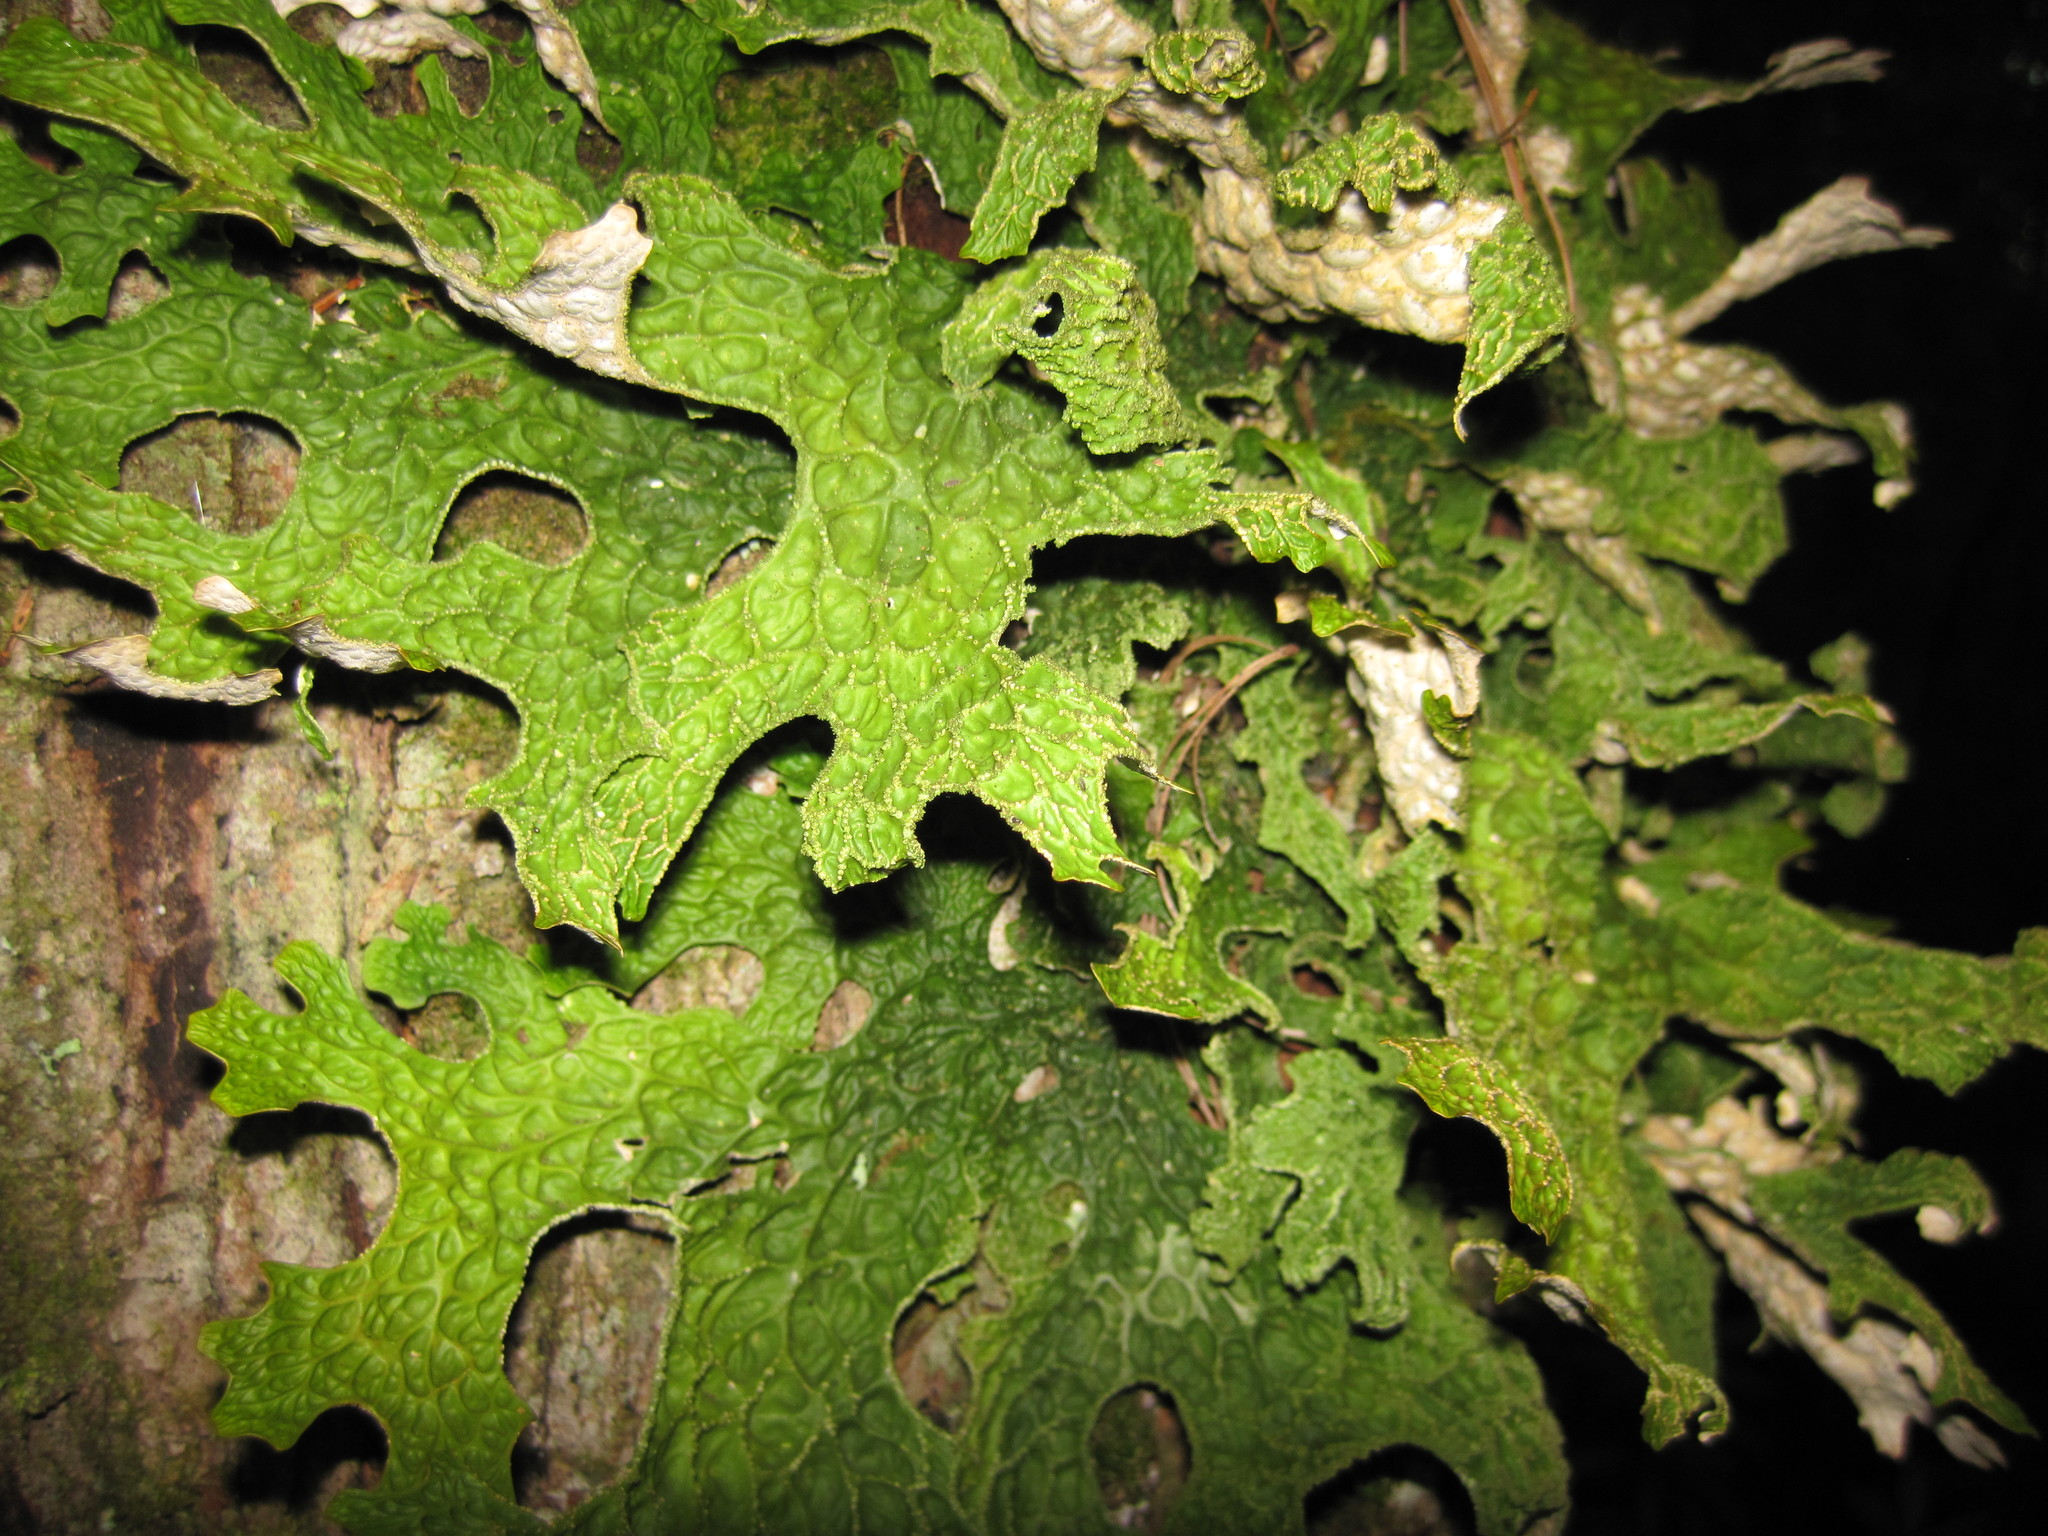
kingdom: Fungi
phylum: Ascomycota
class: Lecanoromycetes
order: Peltigerales
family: Lobariaceae
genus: Lobaria
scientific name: Lobaria pulmonaria
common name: Lungwort
